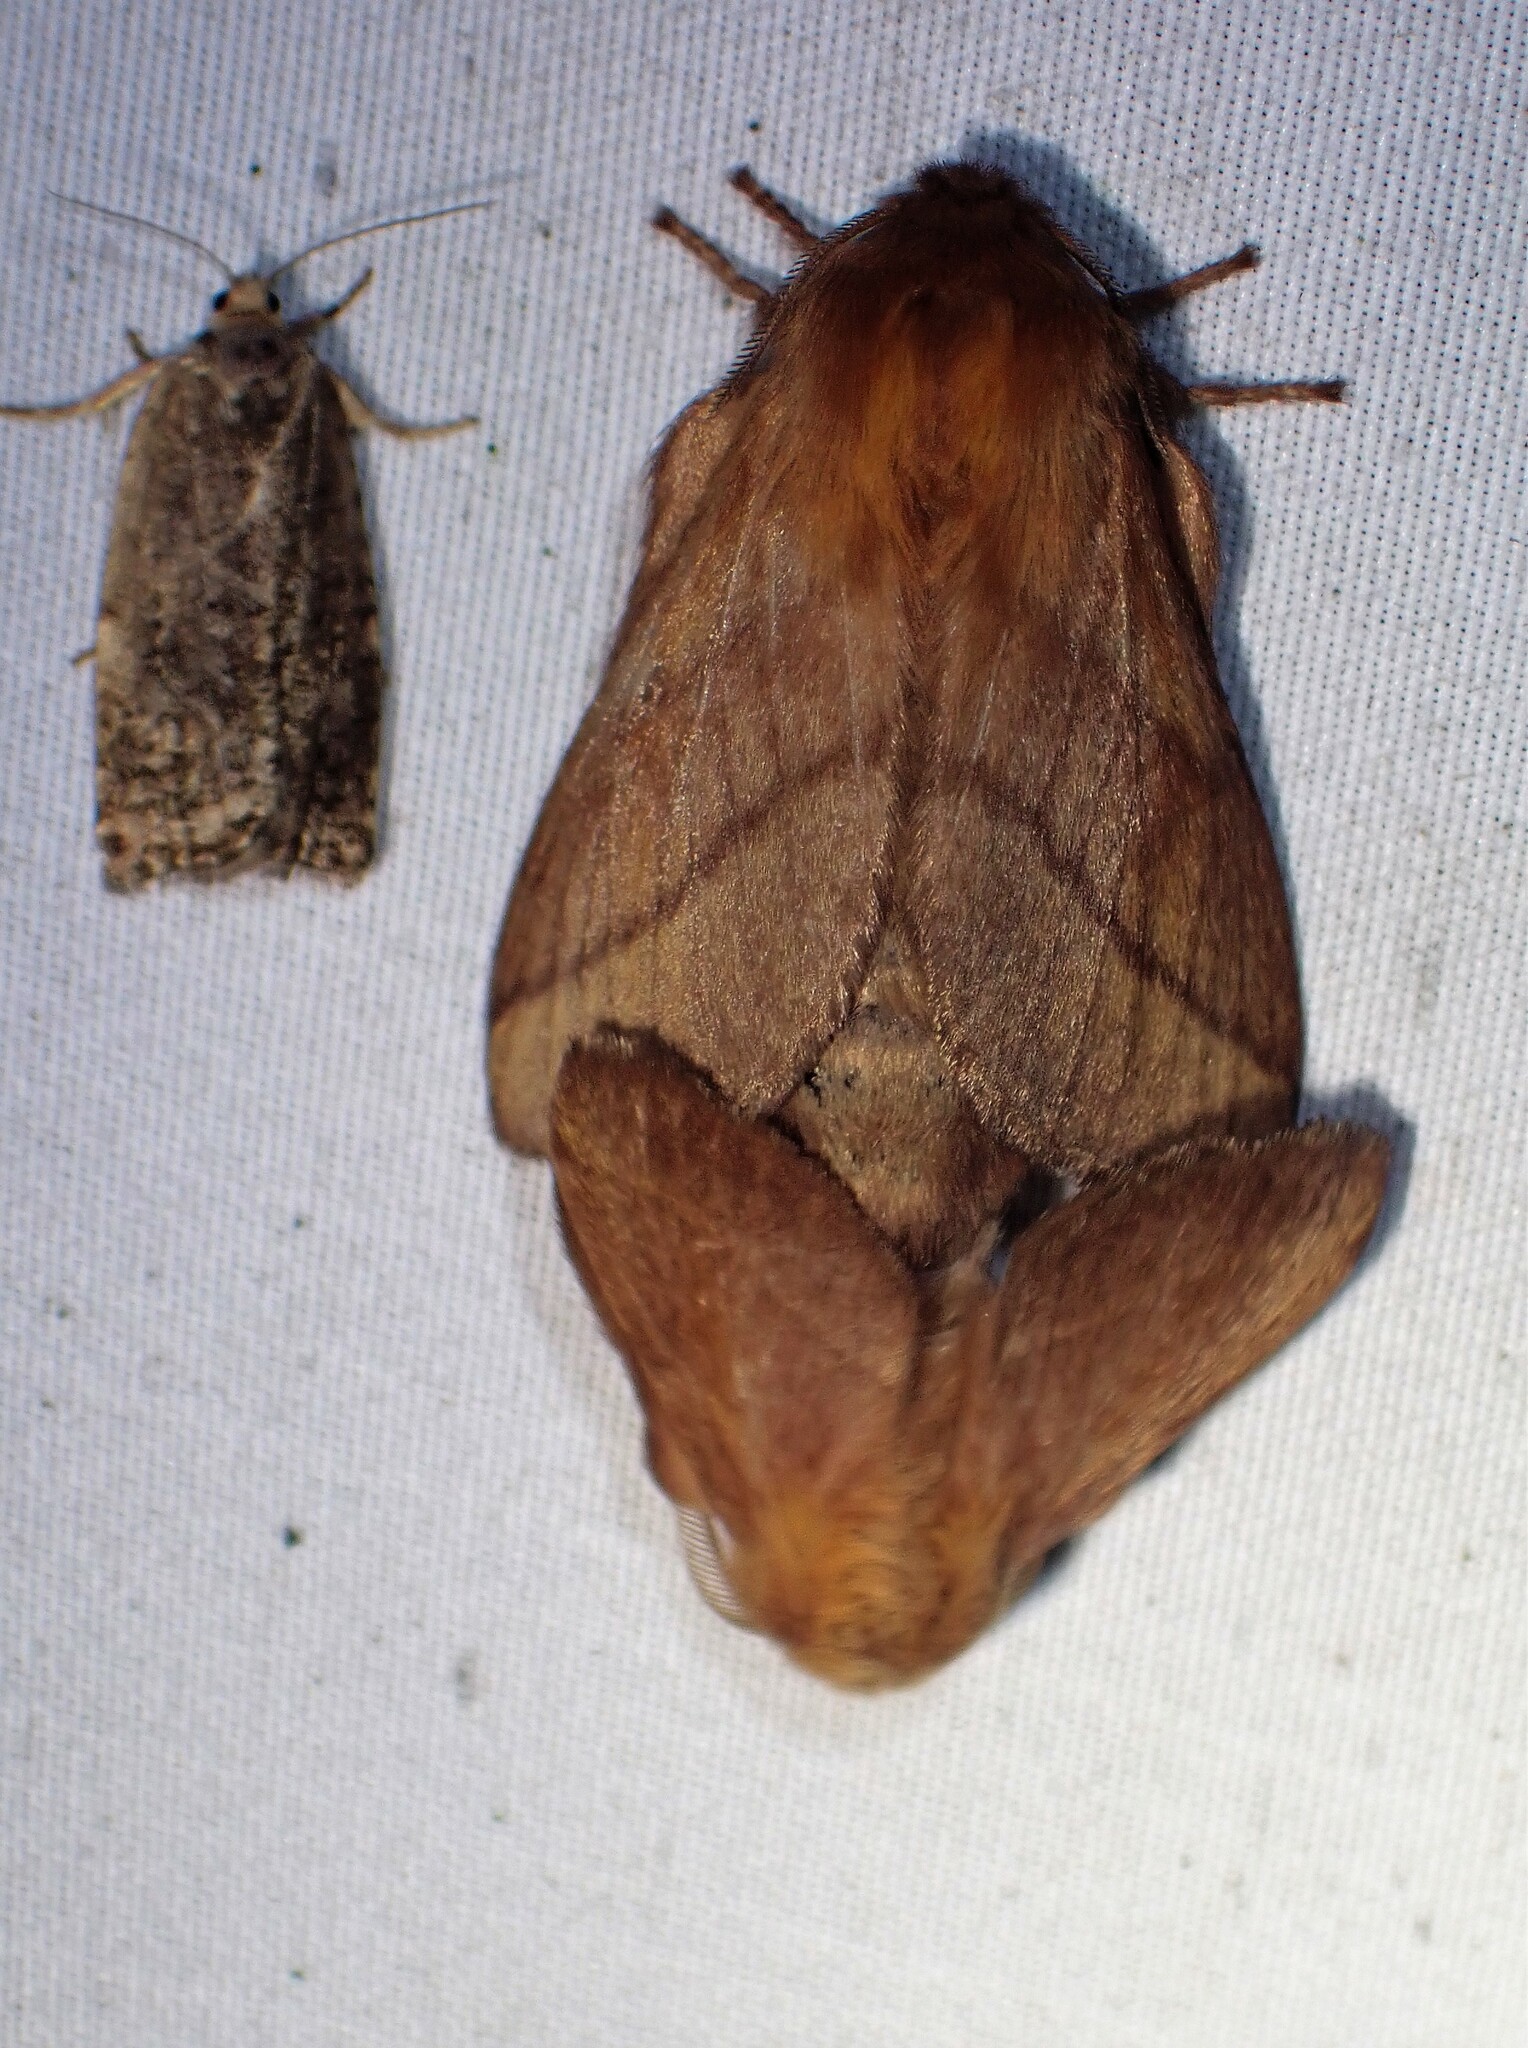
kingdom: Animalia
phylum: Arthropoda
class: Insecta
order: Lepidoptera
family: Lasiocampidae
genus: Malacosoma
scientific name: Malacosoma disstria
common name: Forest tent caterpillar
